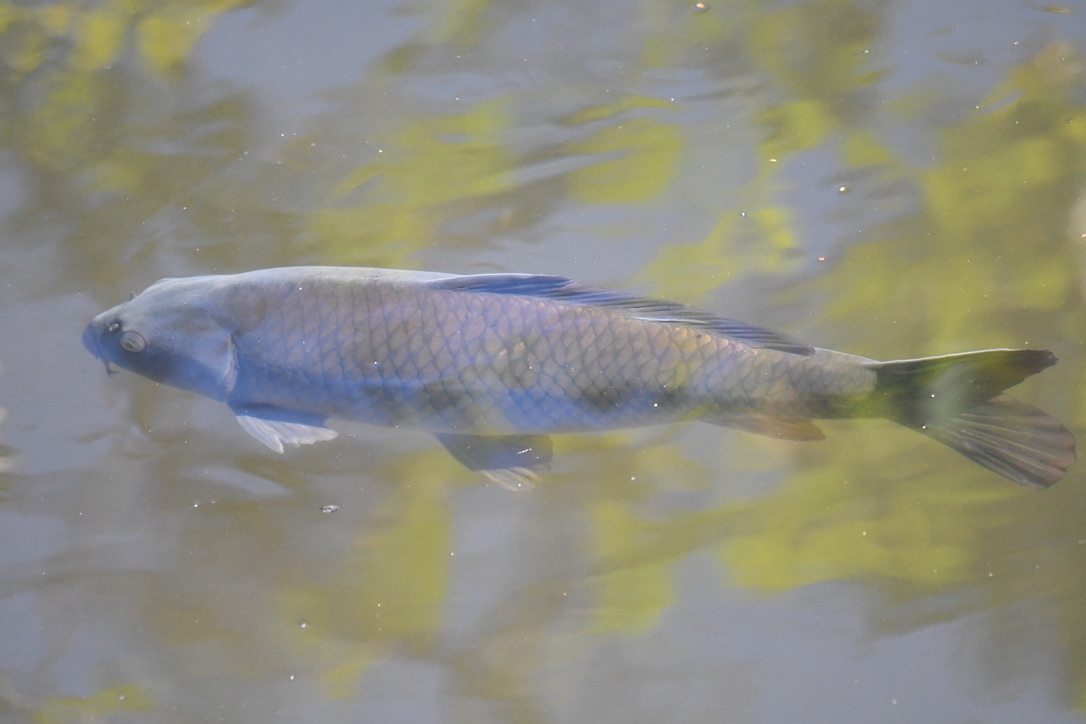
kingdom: Animalia
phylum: Chordata
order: Cypriniformes
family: Cyprinidae
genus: Cyprinus
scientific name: Cyprinus carpio
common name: Common carp
